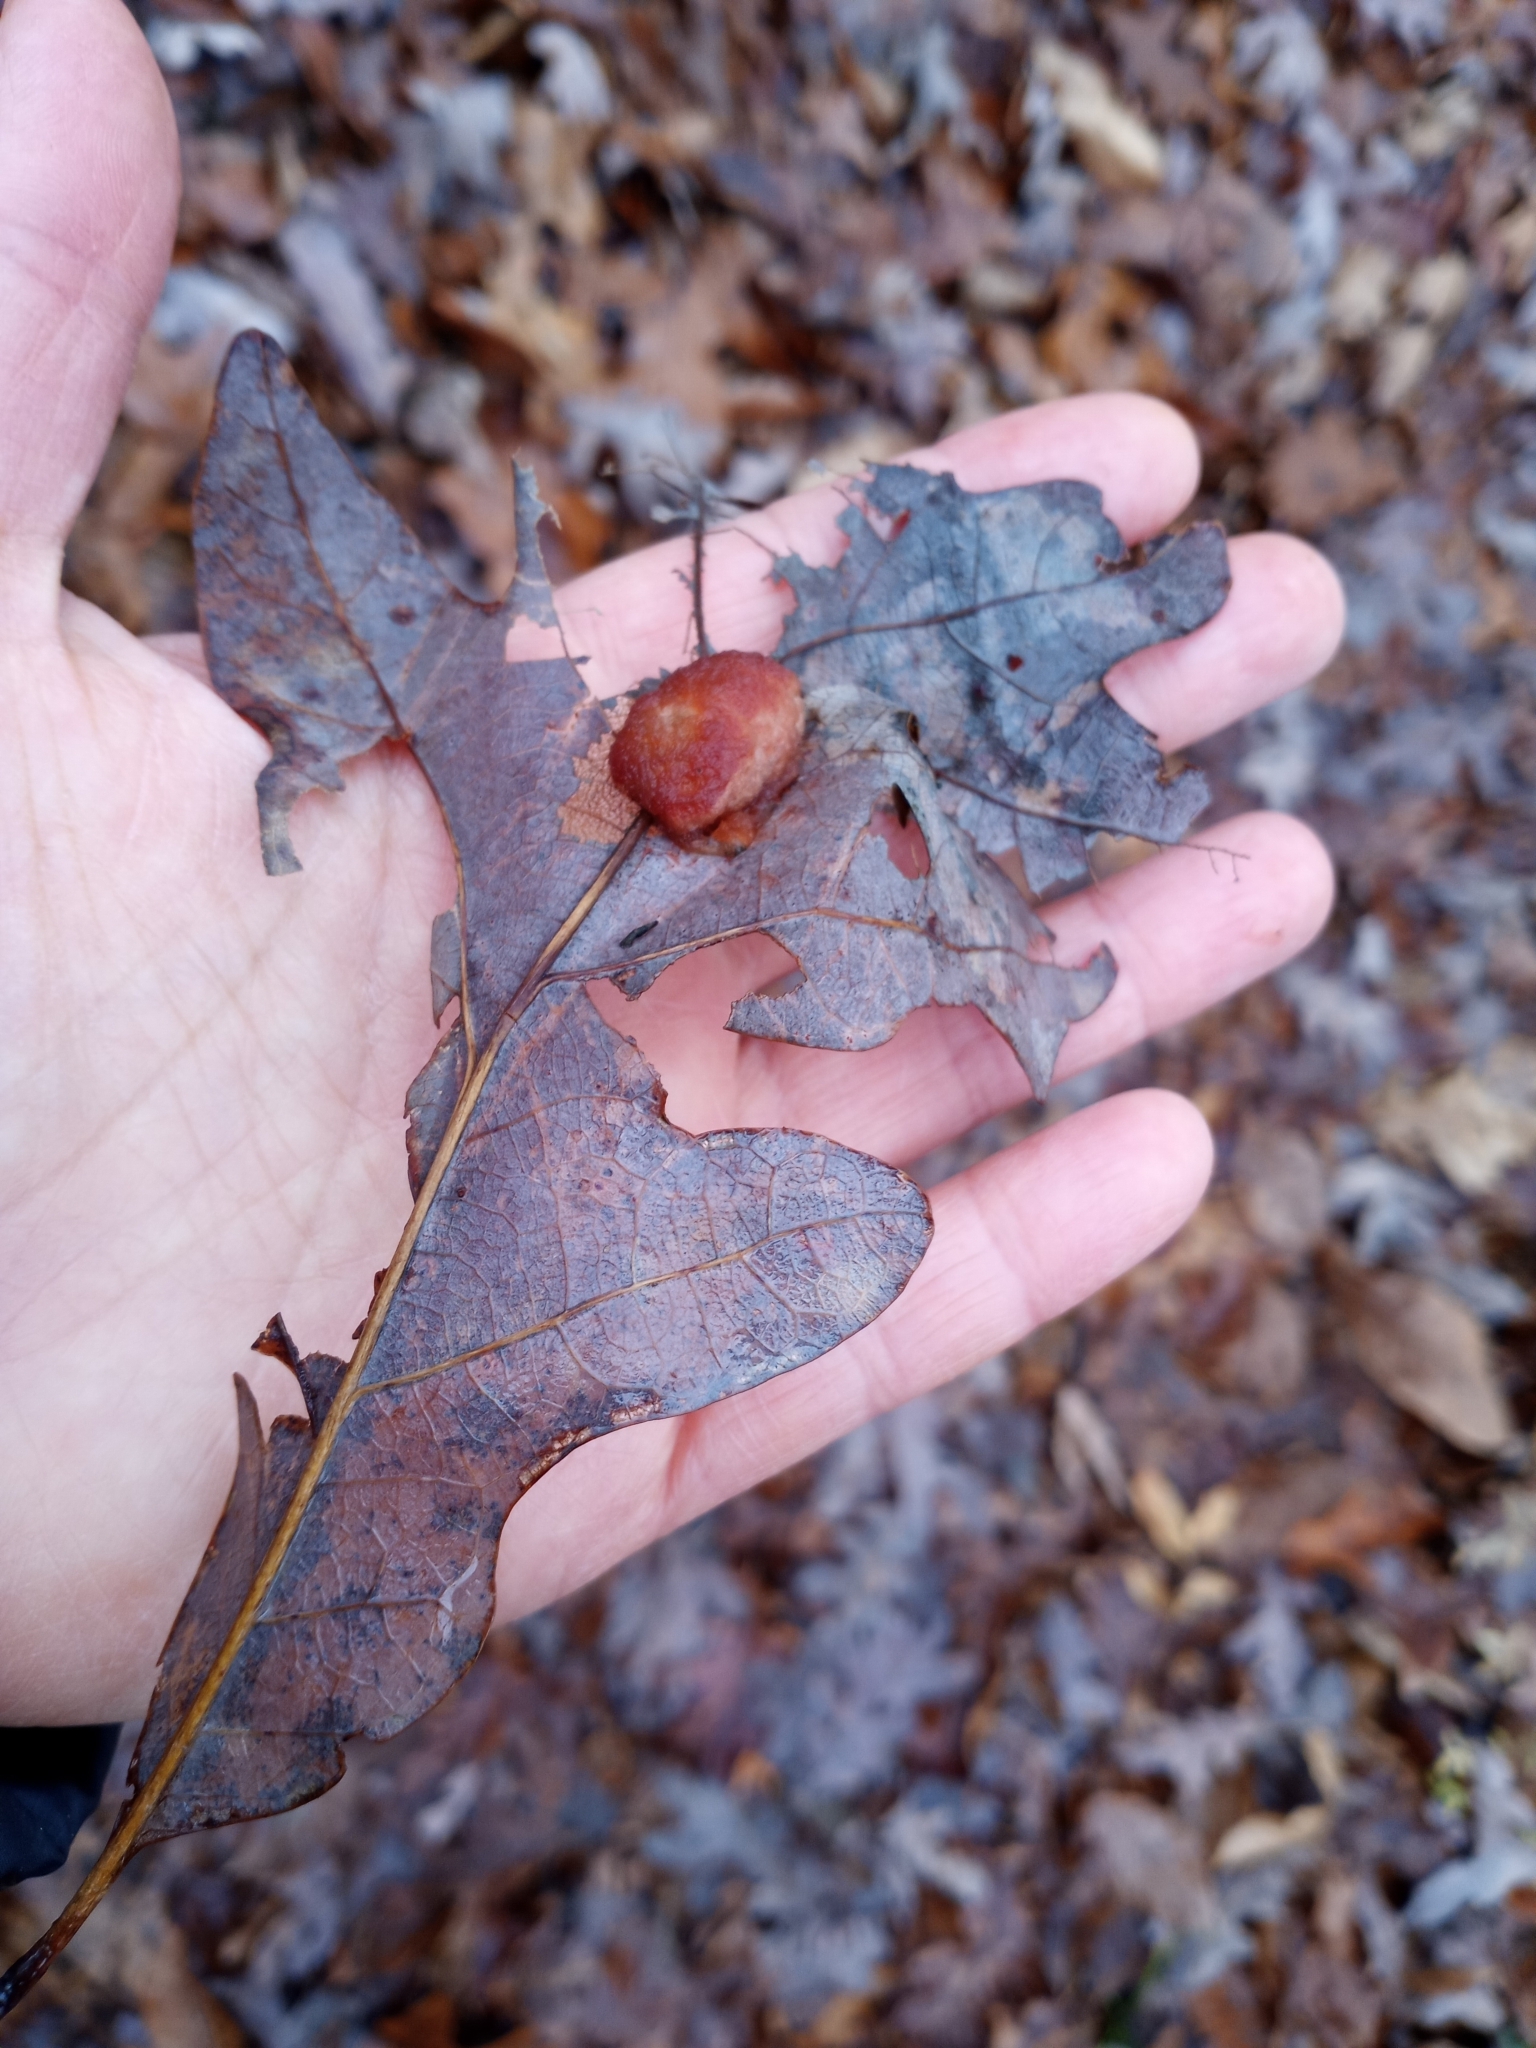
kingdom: Animalia
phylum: Arthropoda
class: Insecta
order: Hymenoptera
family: Cynipidae
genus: Andricus
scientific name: Andricus quercusflocci
